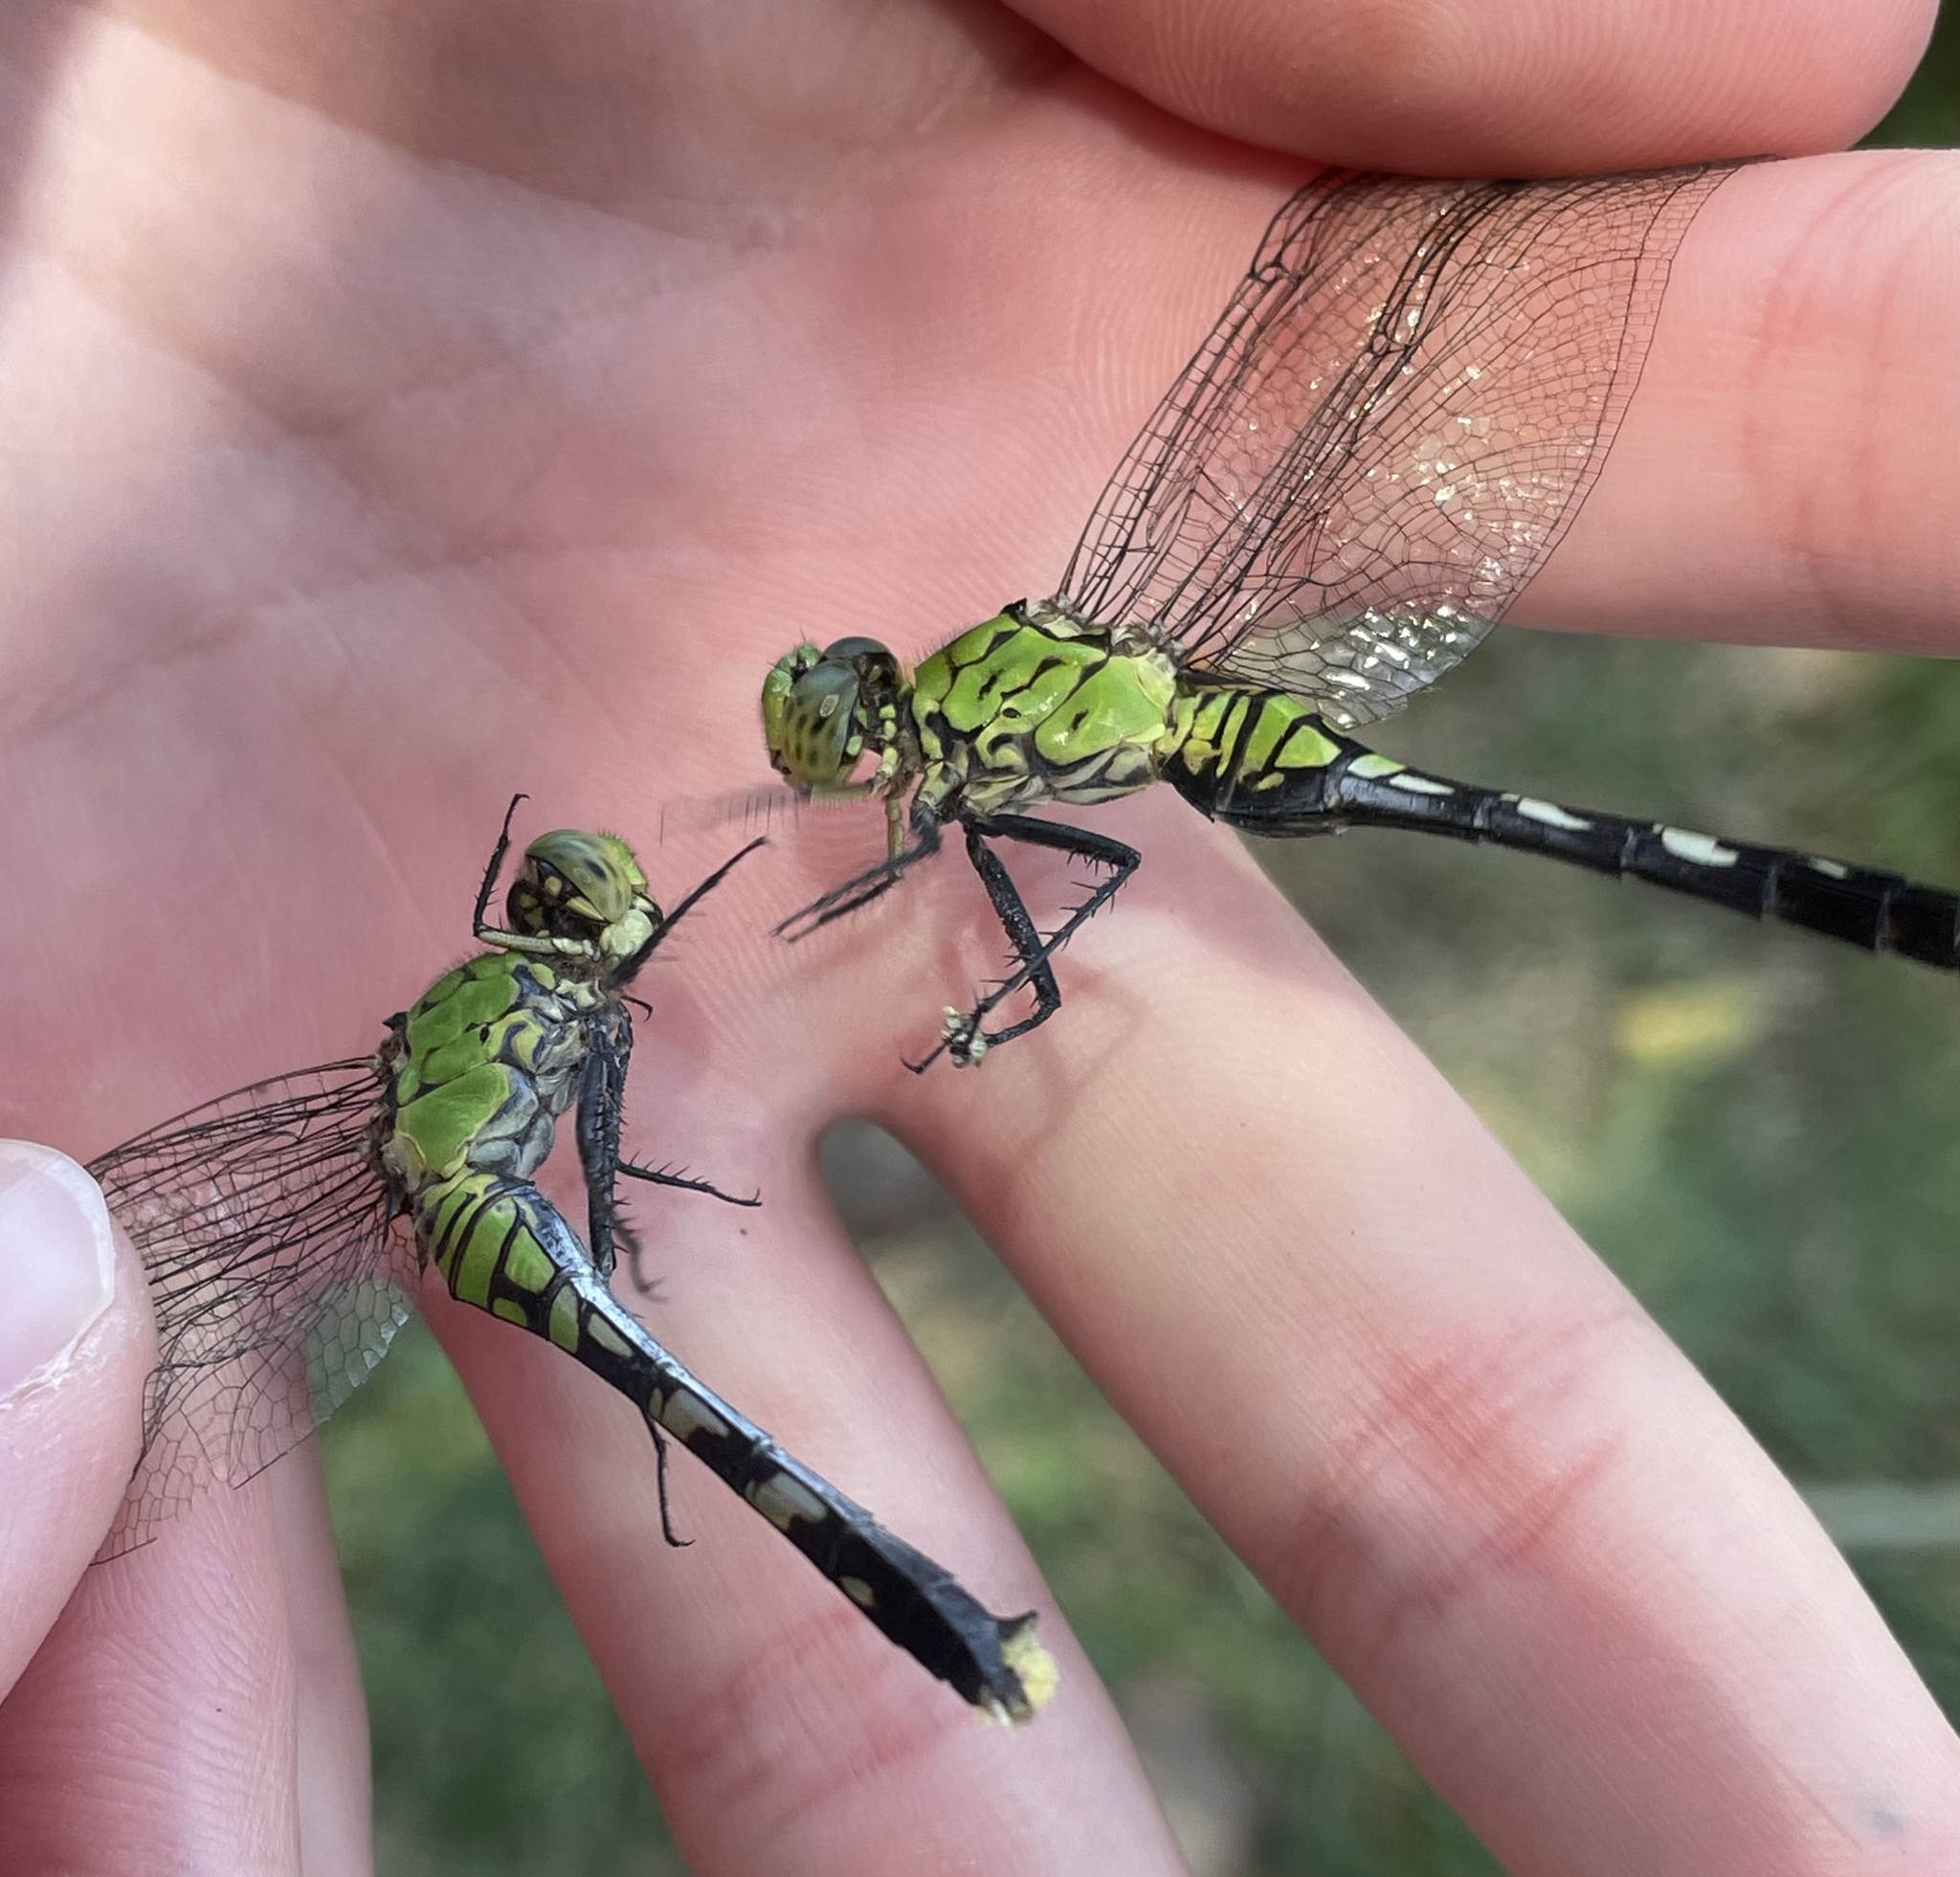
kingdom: Animalia
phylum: Arthropoda
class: Insecta
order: Odonata
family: Libellulidae
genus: Erythemis
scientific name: Erythemis simplicicollis
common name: Eastern pondhawk
